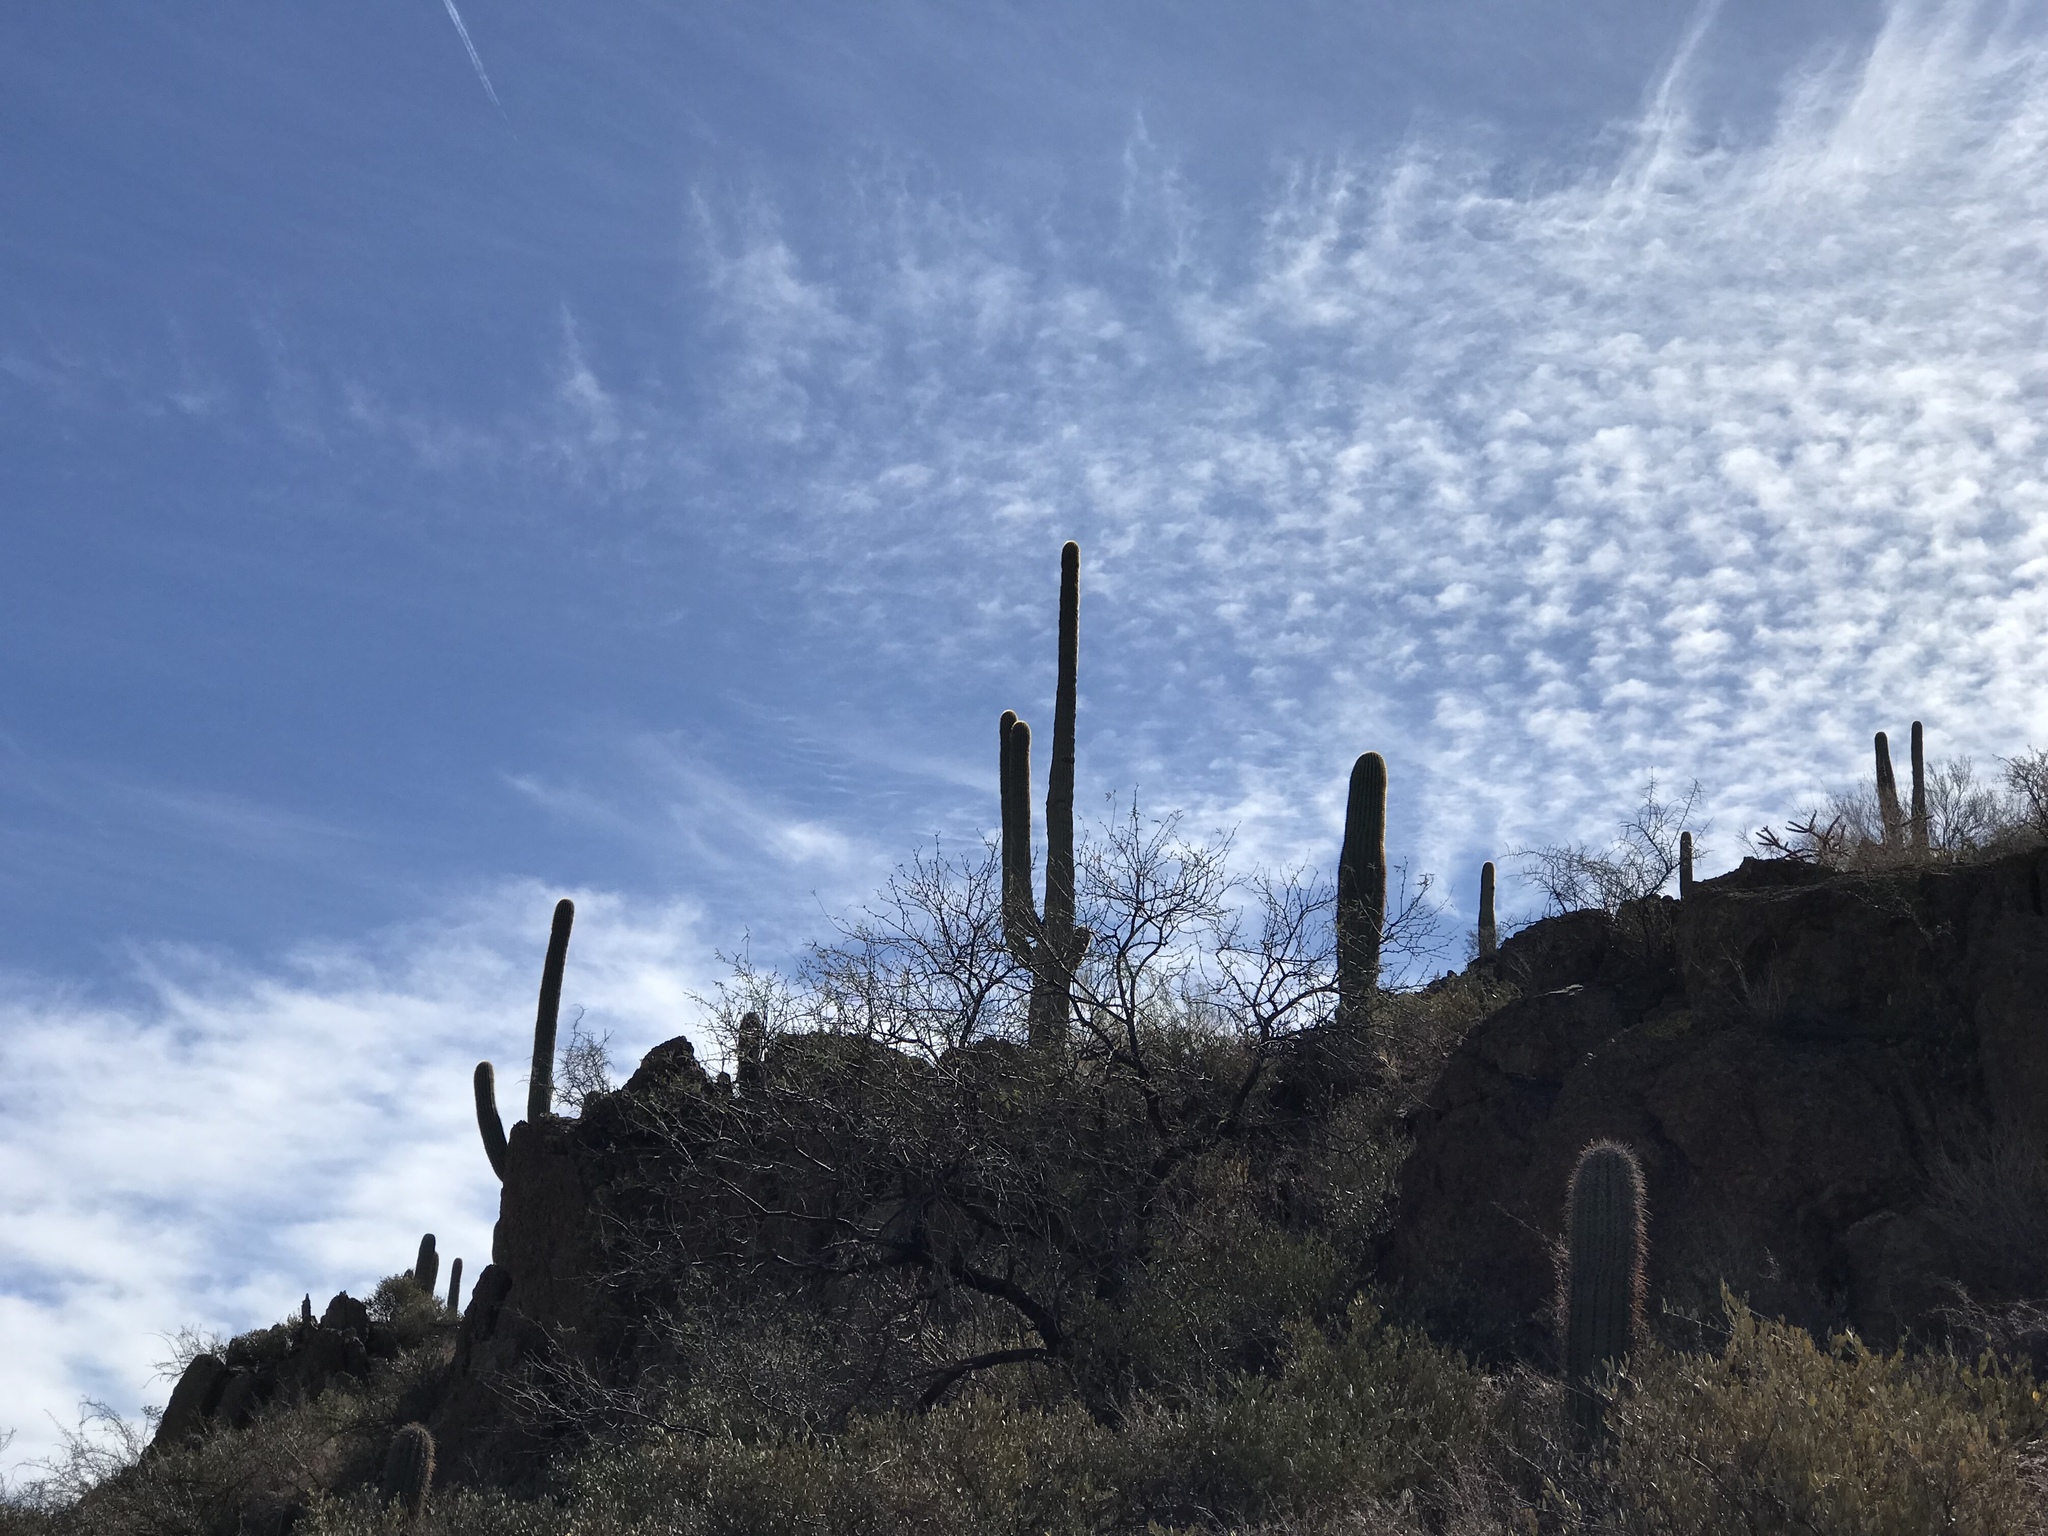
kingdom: Plantae
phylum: Tracheophyta
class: Magnoliopsida
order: Caryophyllales
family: Cactaceae
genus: Carnegiea
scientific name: Carnegiea gigantea
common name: Saguaro
